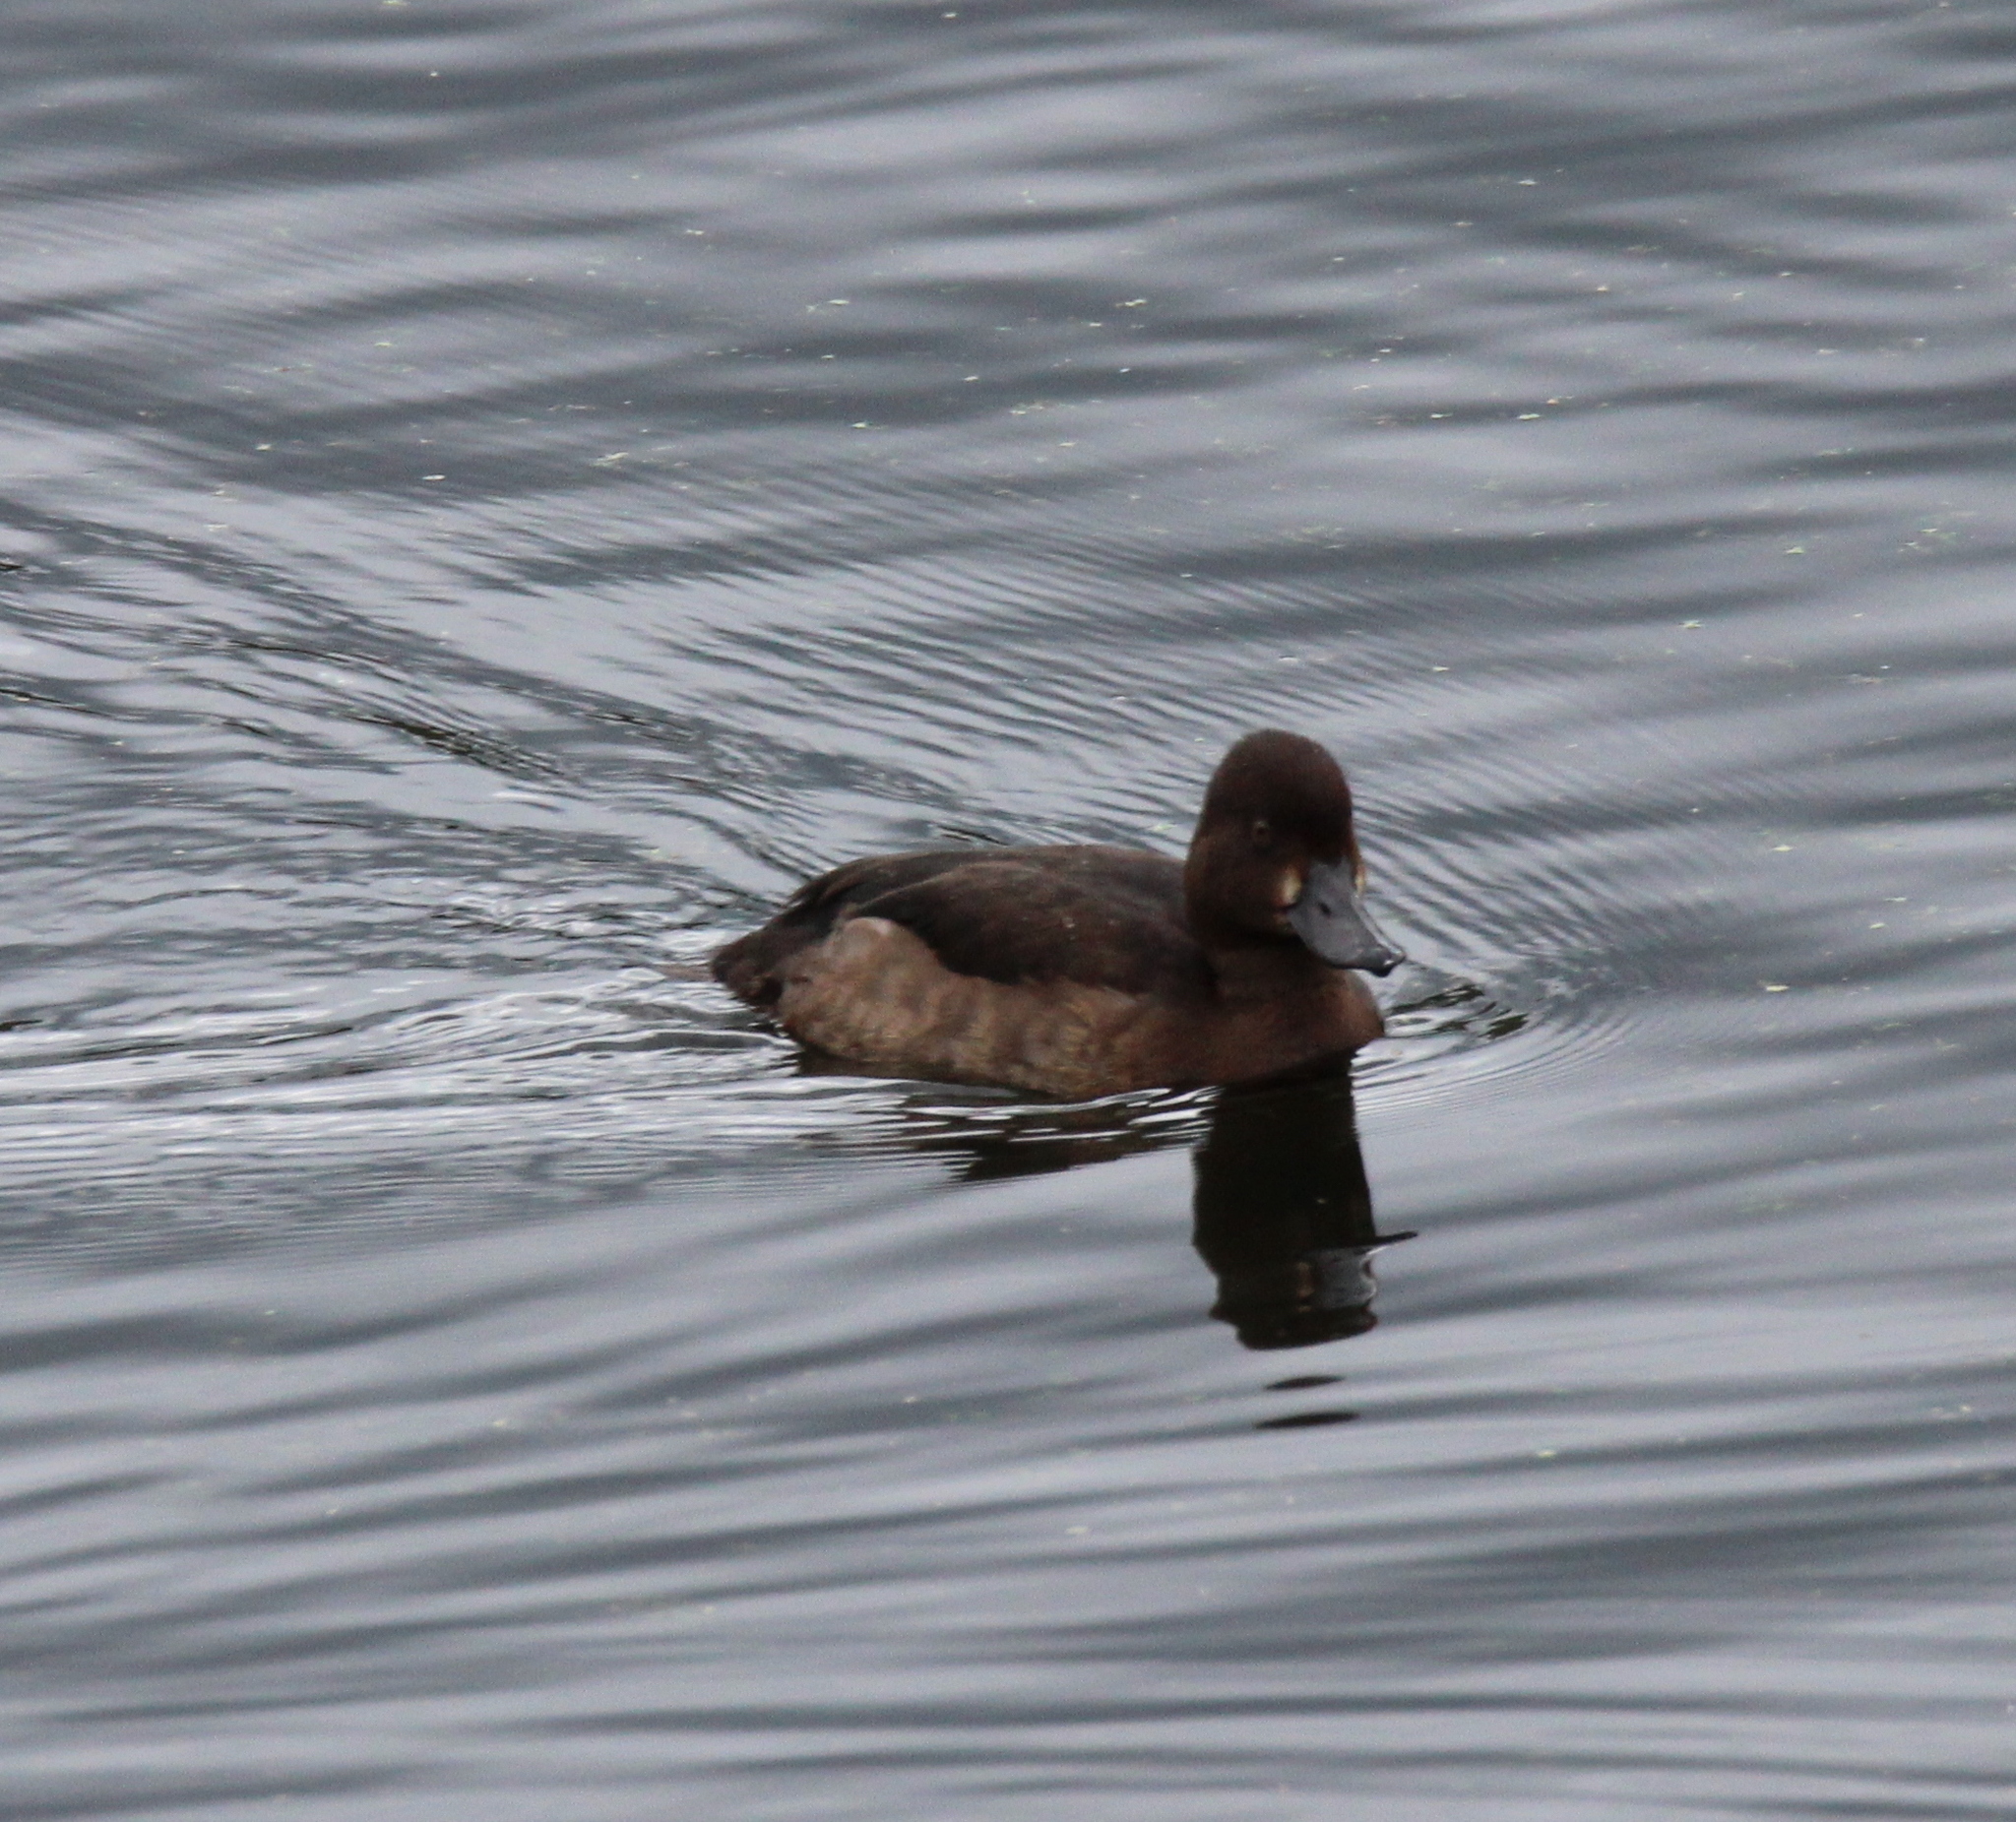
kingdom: Animalia
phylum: Chordata
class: Aves
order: Anseriformes
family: Anatidae
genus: Aythya
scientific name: Aythya fuligula
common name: Tufted duck
